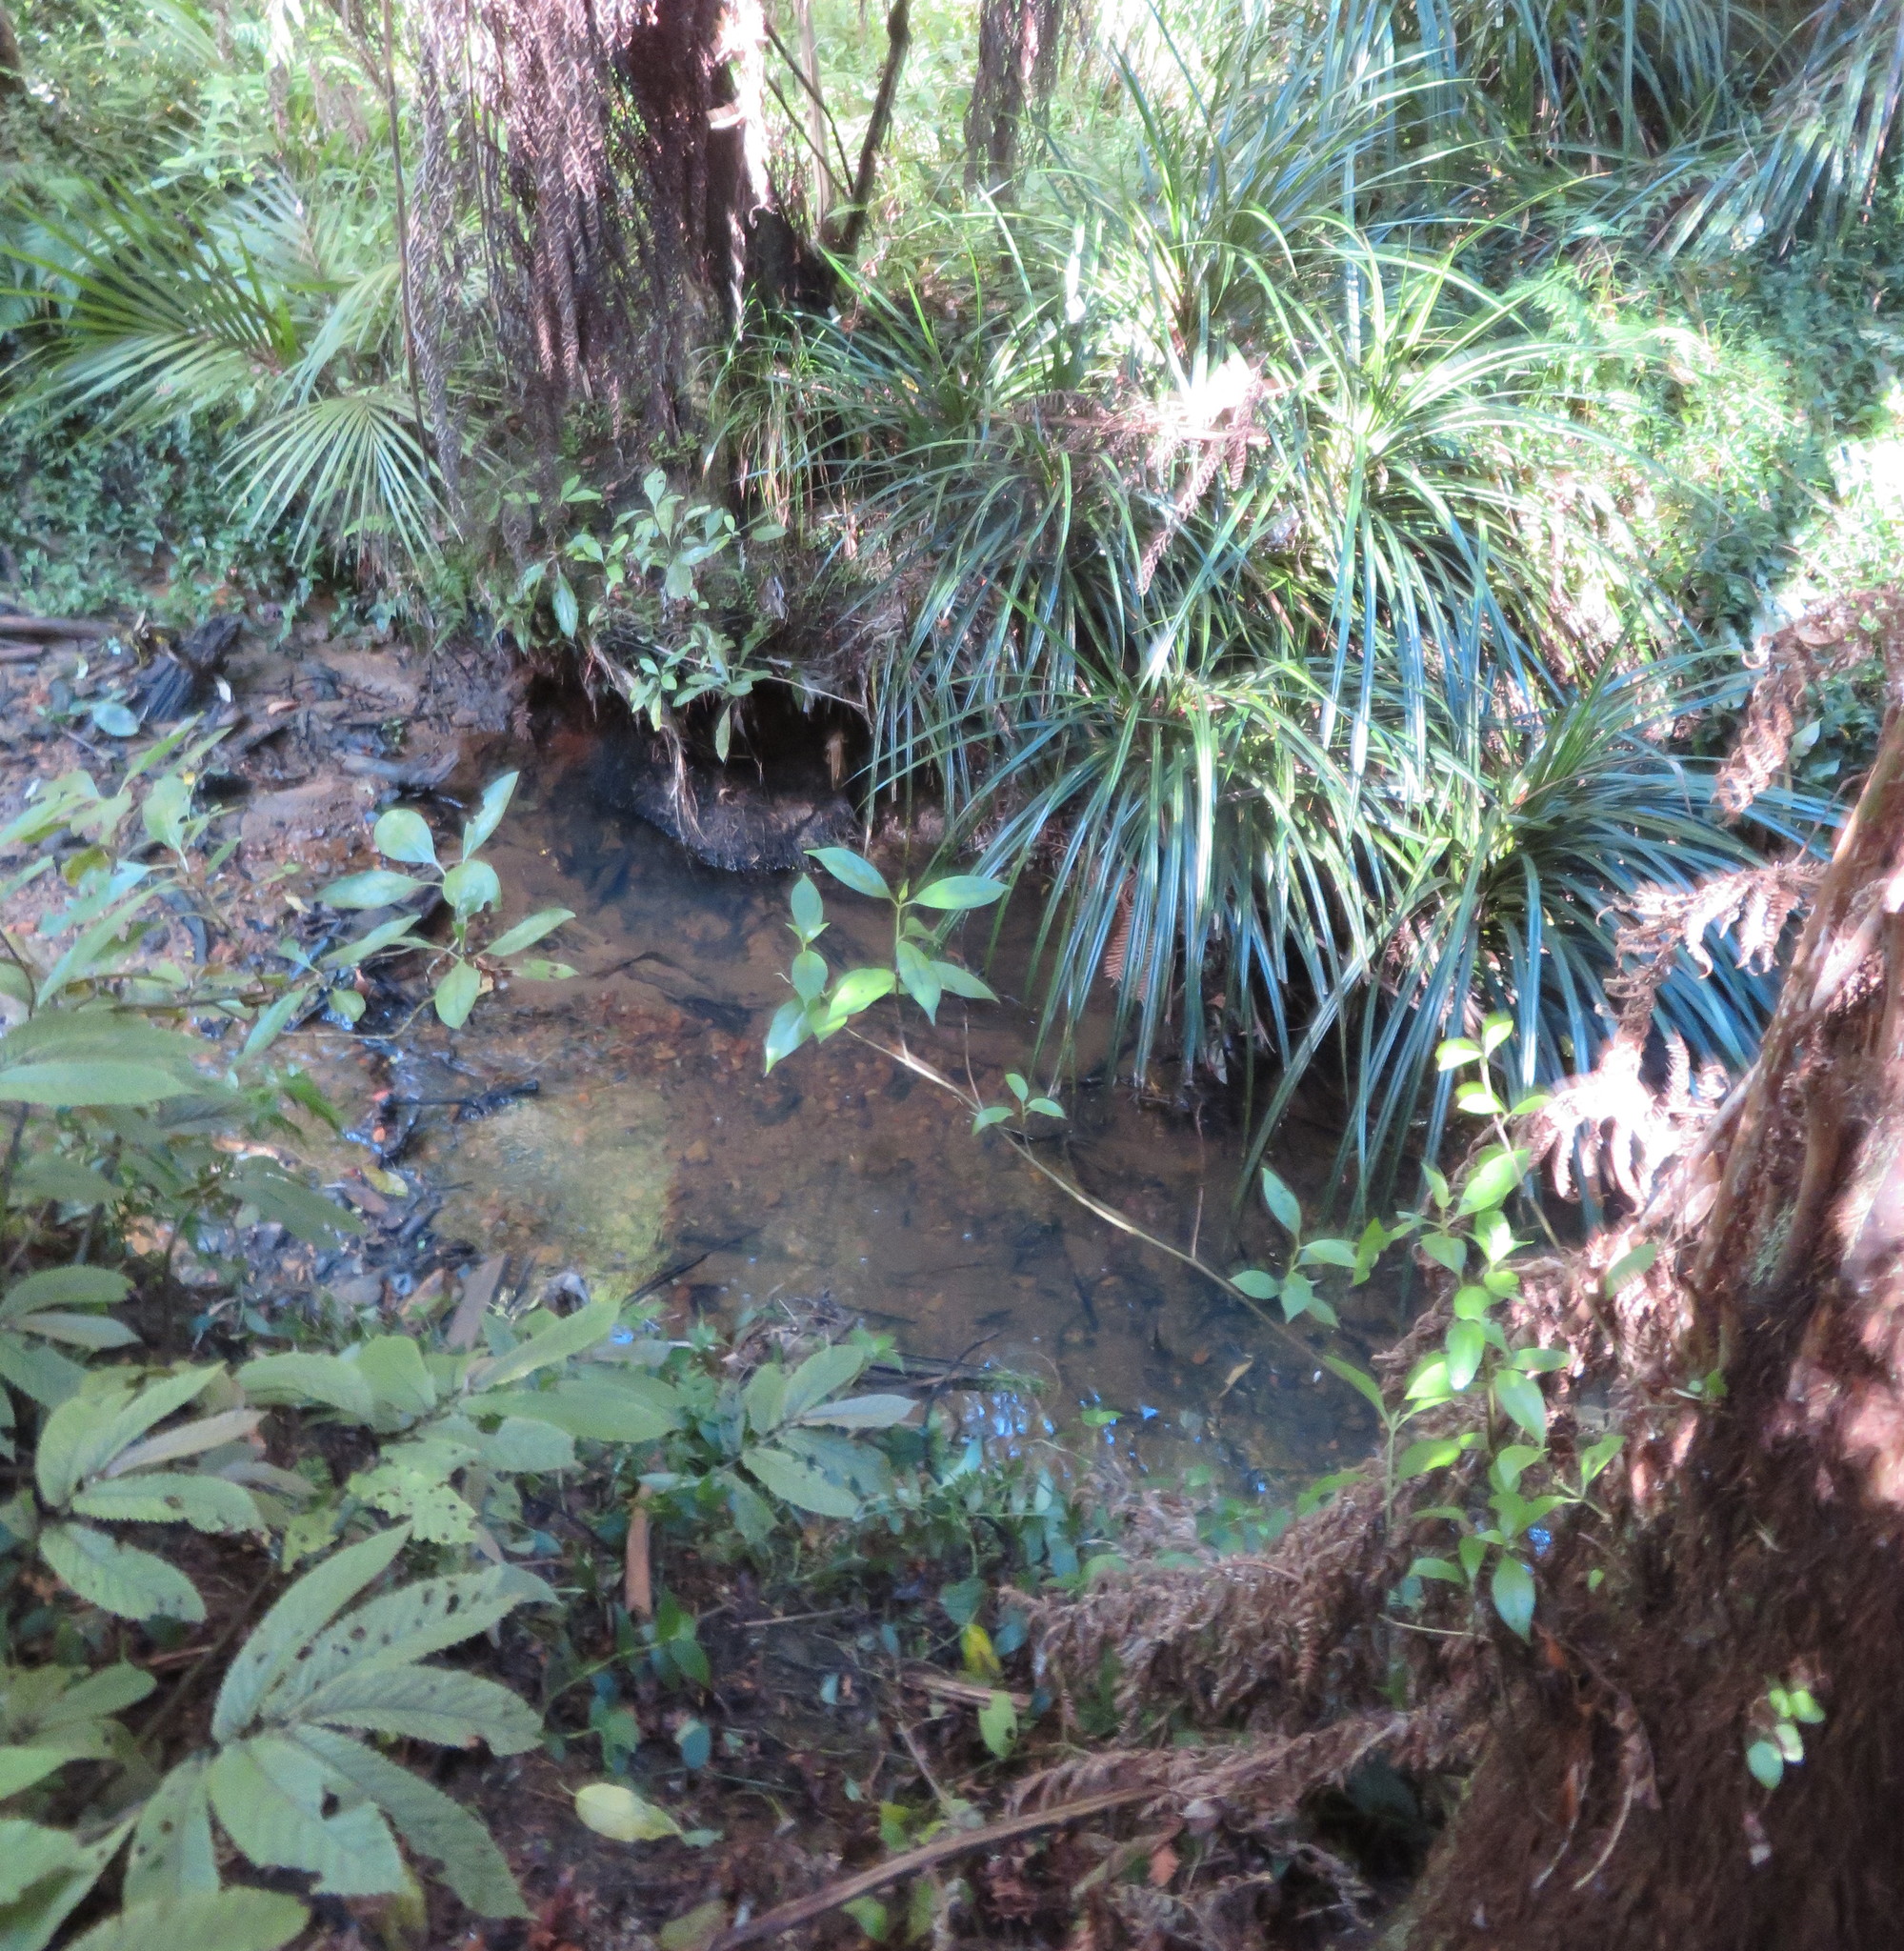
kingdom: Plantae
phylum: Tracheophyta
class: Magnoliopsida
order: Gentianales
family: Loganiaceae
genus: Geniostoma
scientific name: Geniostoma ligustrifolium
